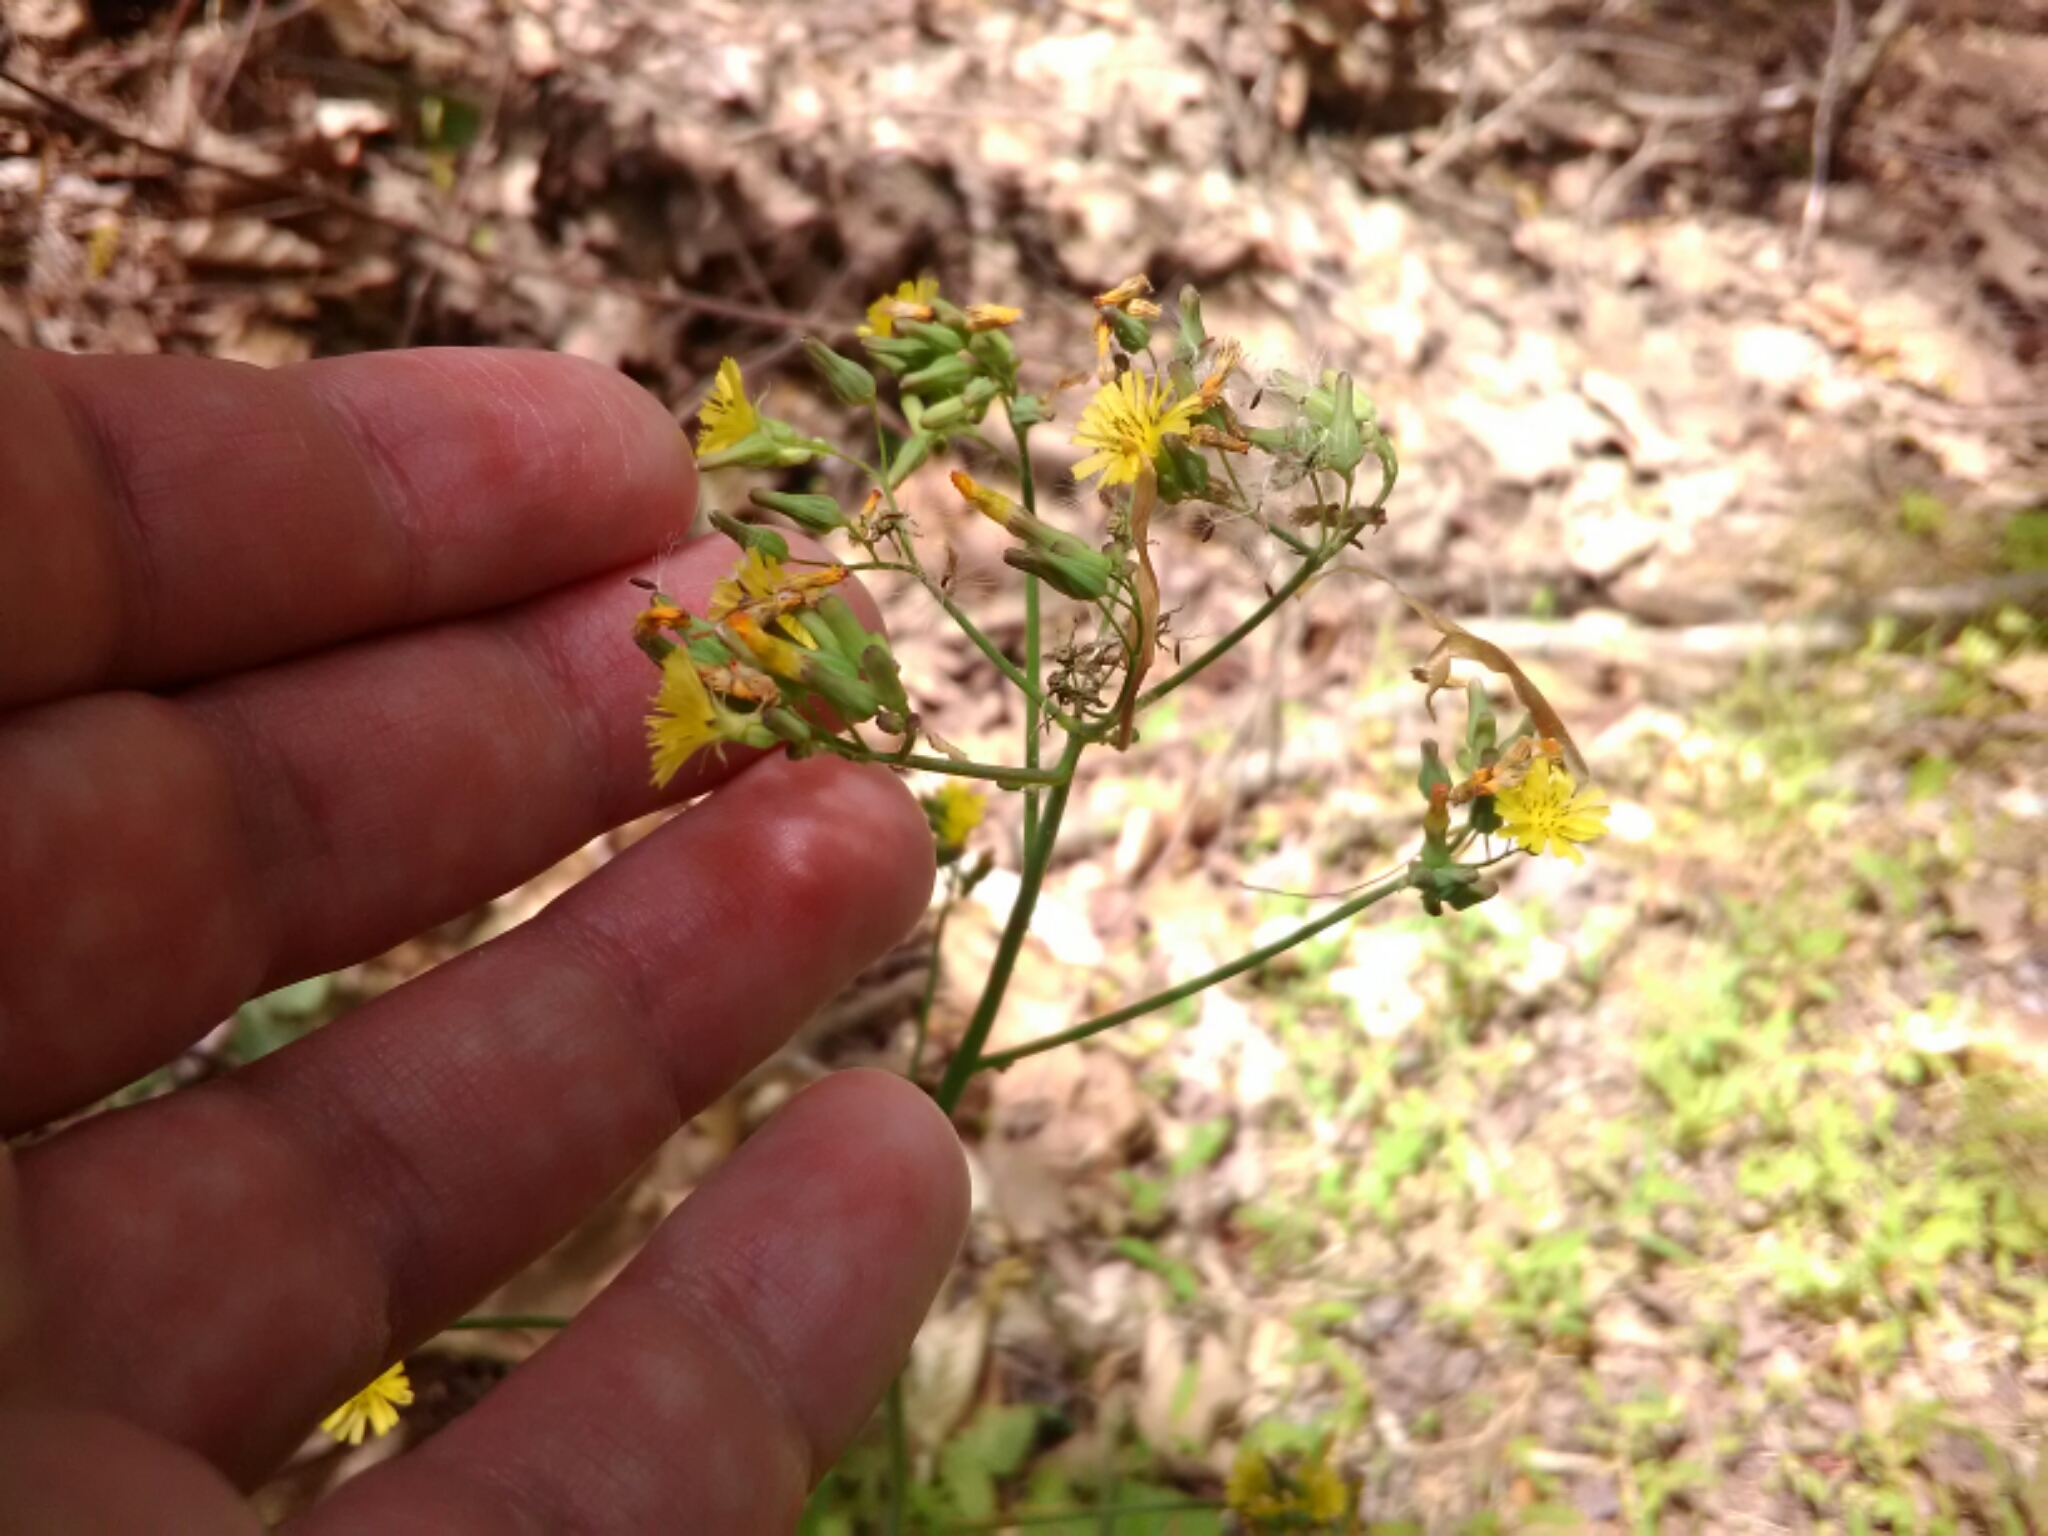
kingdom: Plantae
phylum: Tracheophyta
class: Magnoliopsida
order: Asterales
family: Asteraceae
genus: Youngia
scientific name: Youngia japonica
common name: Oriental false hawksbeard
